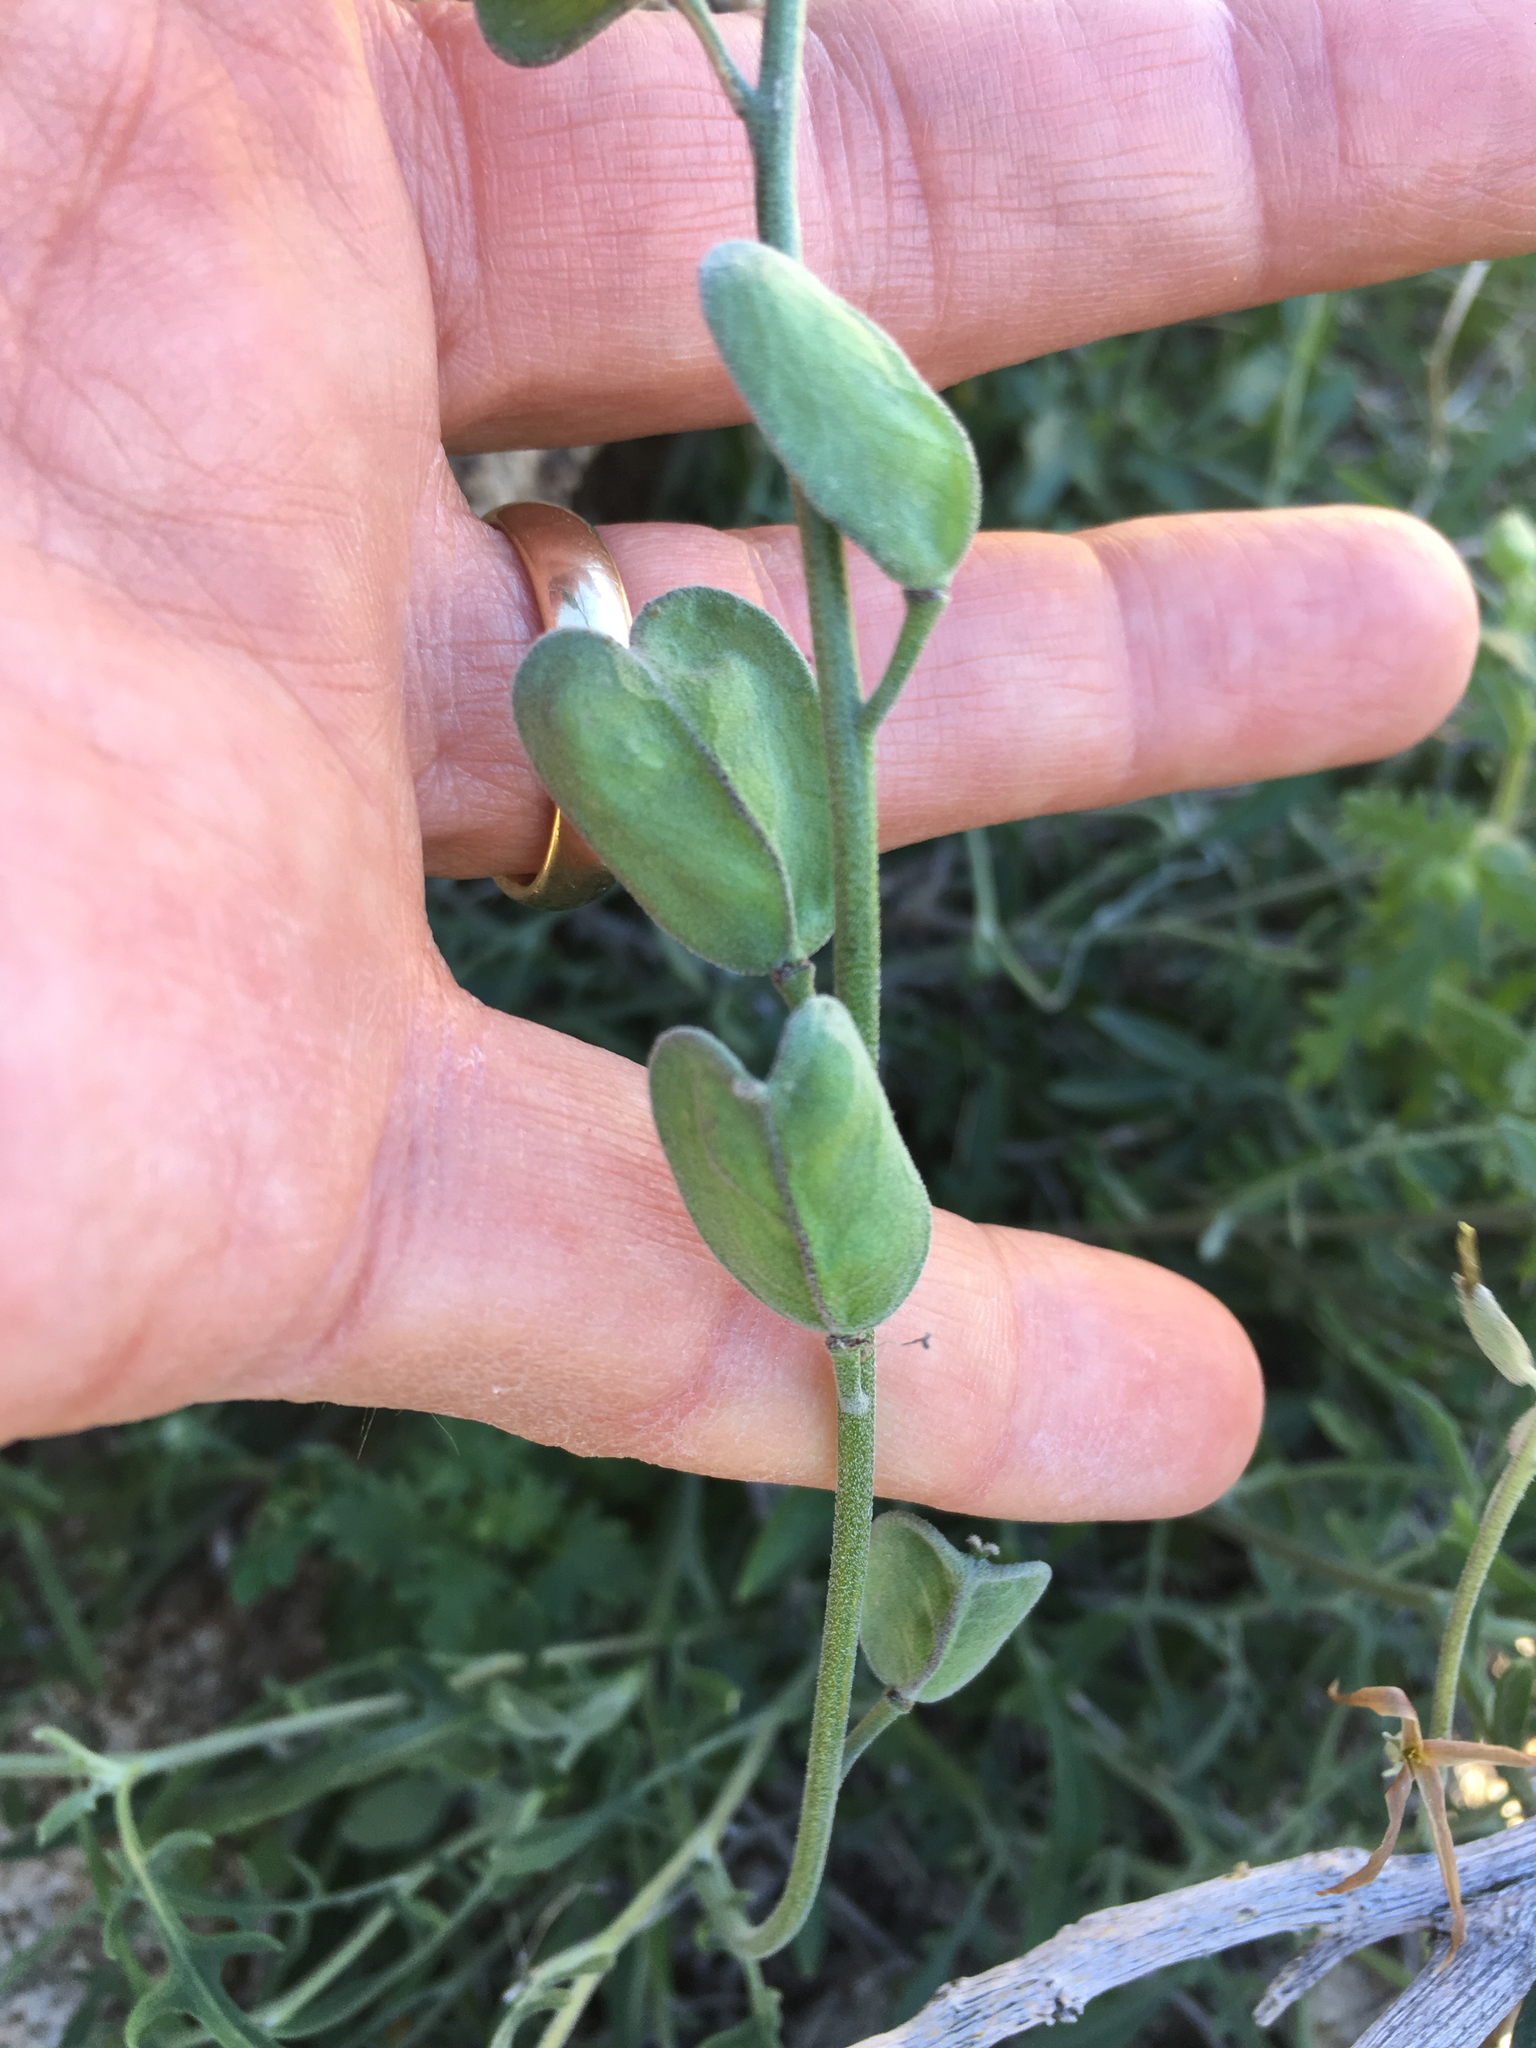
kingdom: Plantae
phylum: Tracheophyta
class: Magnoliopsida
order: Brassicales
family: Brassicaceae
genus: Lyrocarpa
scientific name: Lyrocarpa coulteri
